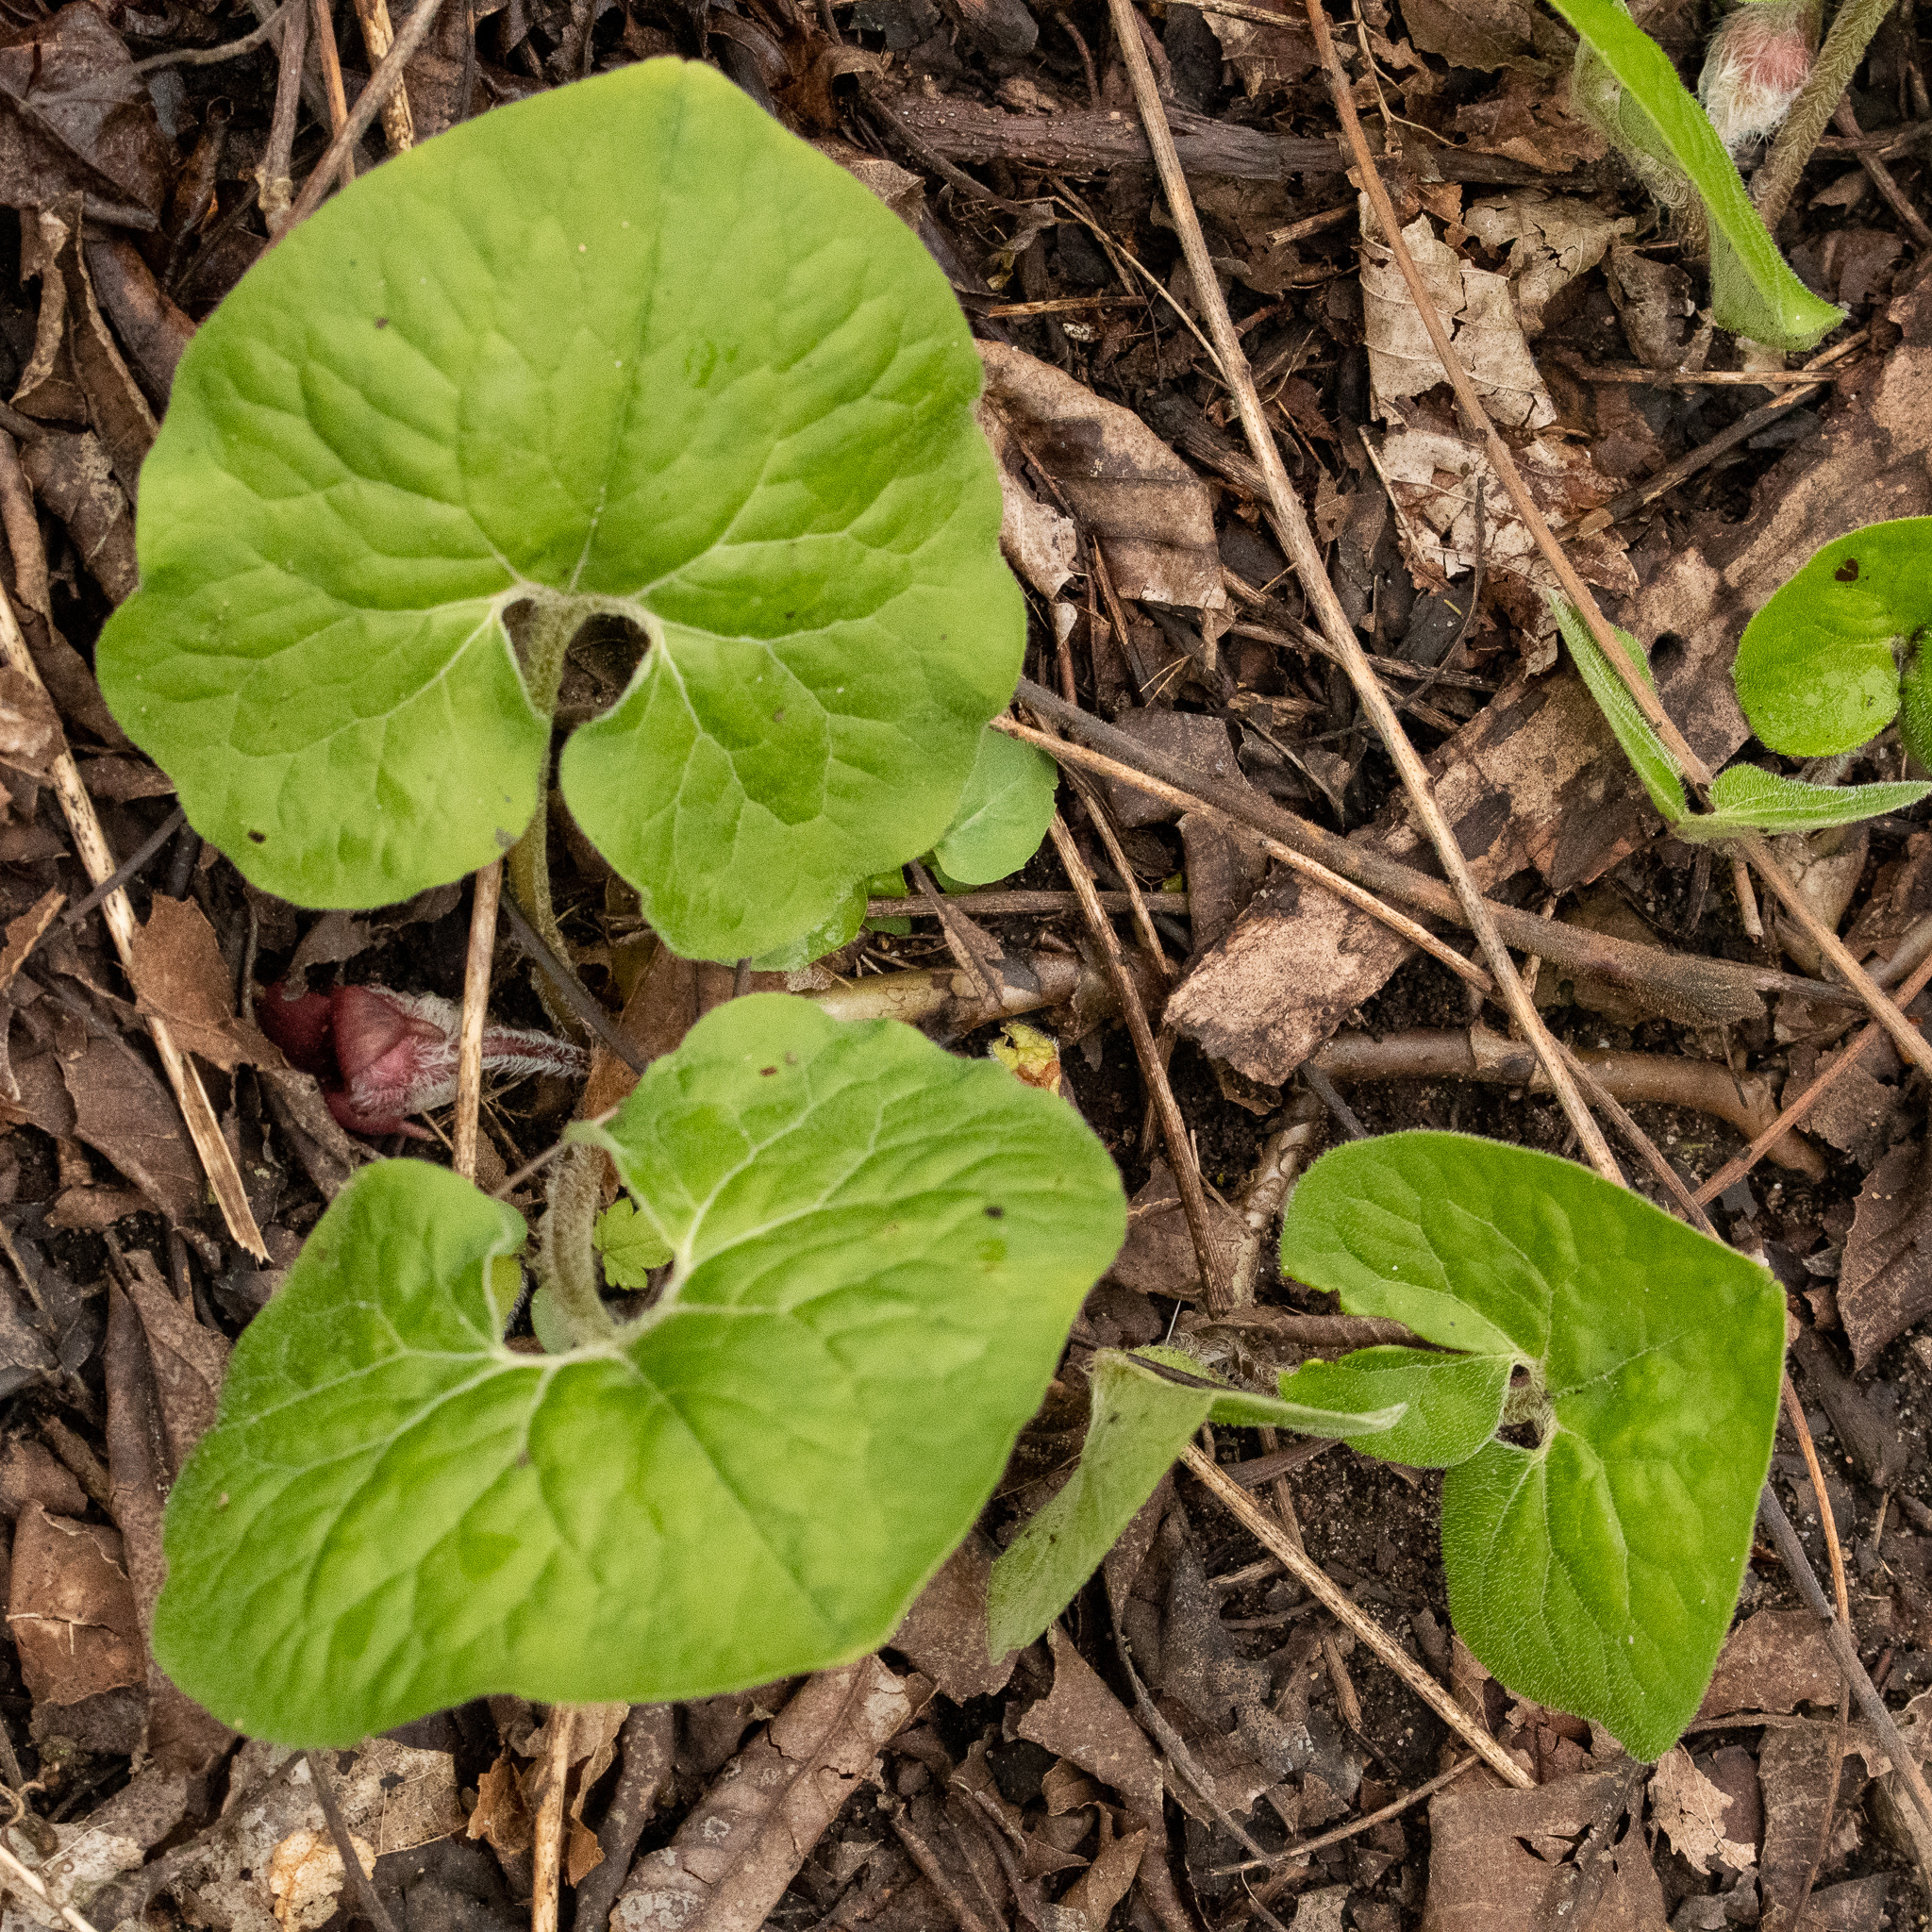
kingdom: Plantae
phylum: Tracheophyta
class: Magnoliopsida
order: Piperales
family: Aristolochiaceae
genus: Asarum
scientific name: Asarum canadense
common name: Wild ginger
